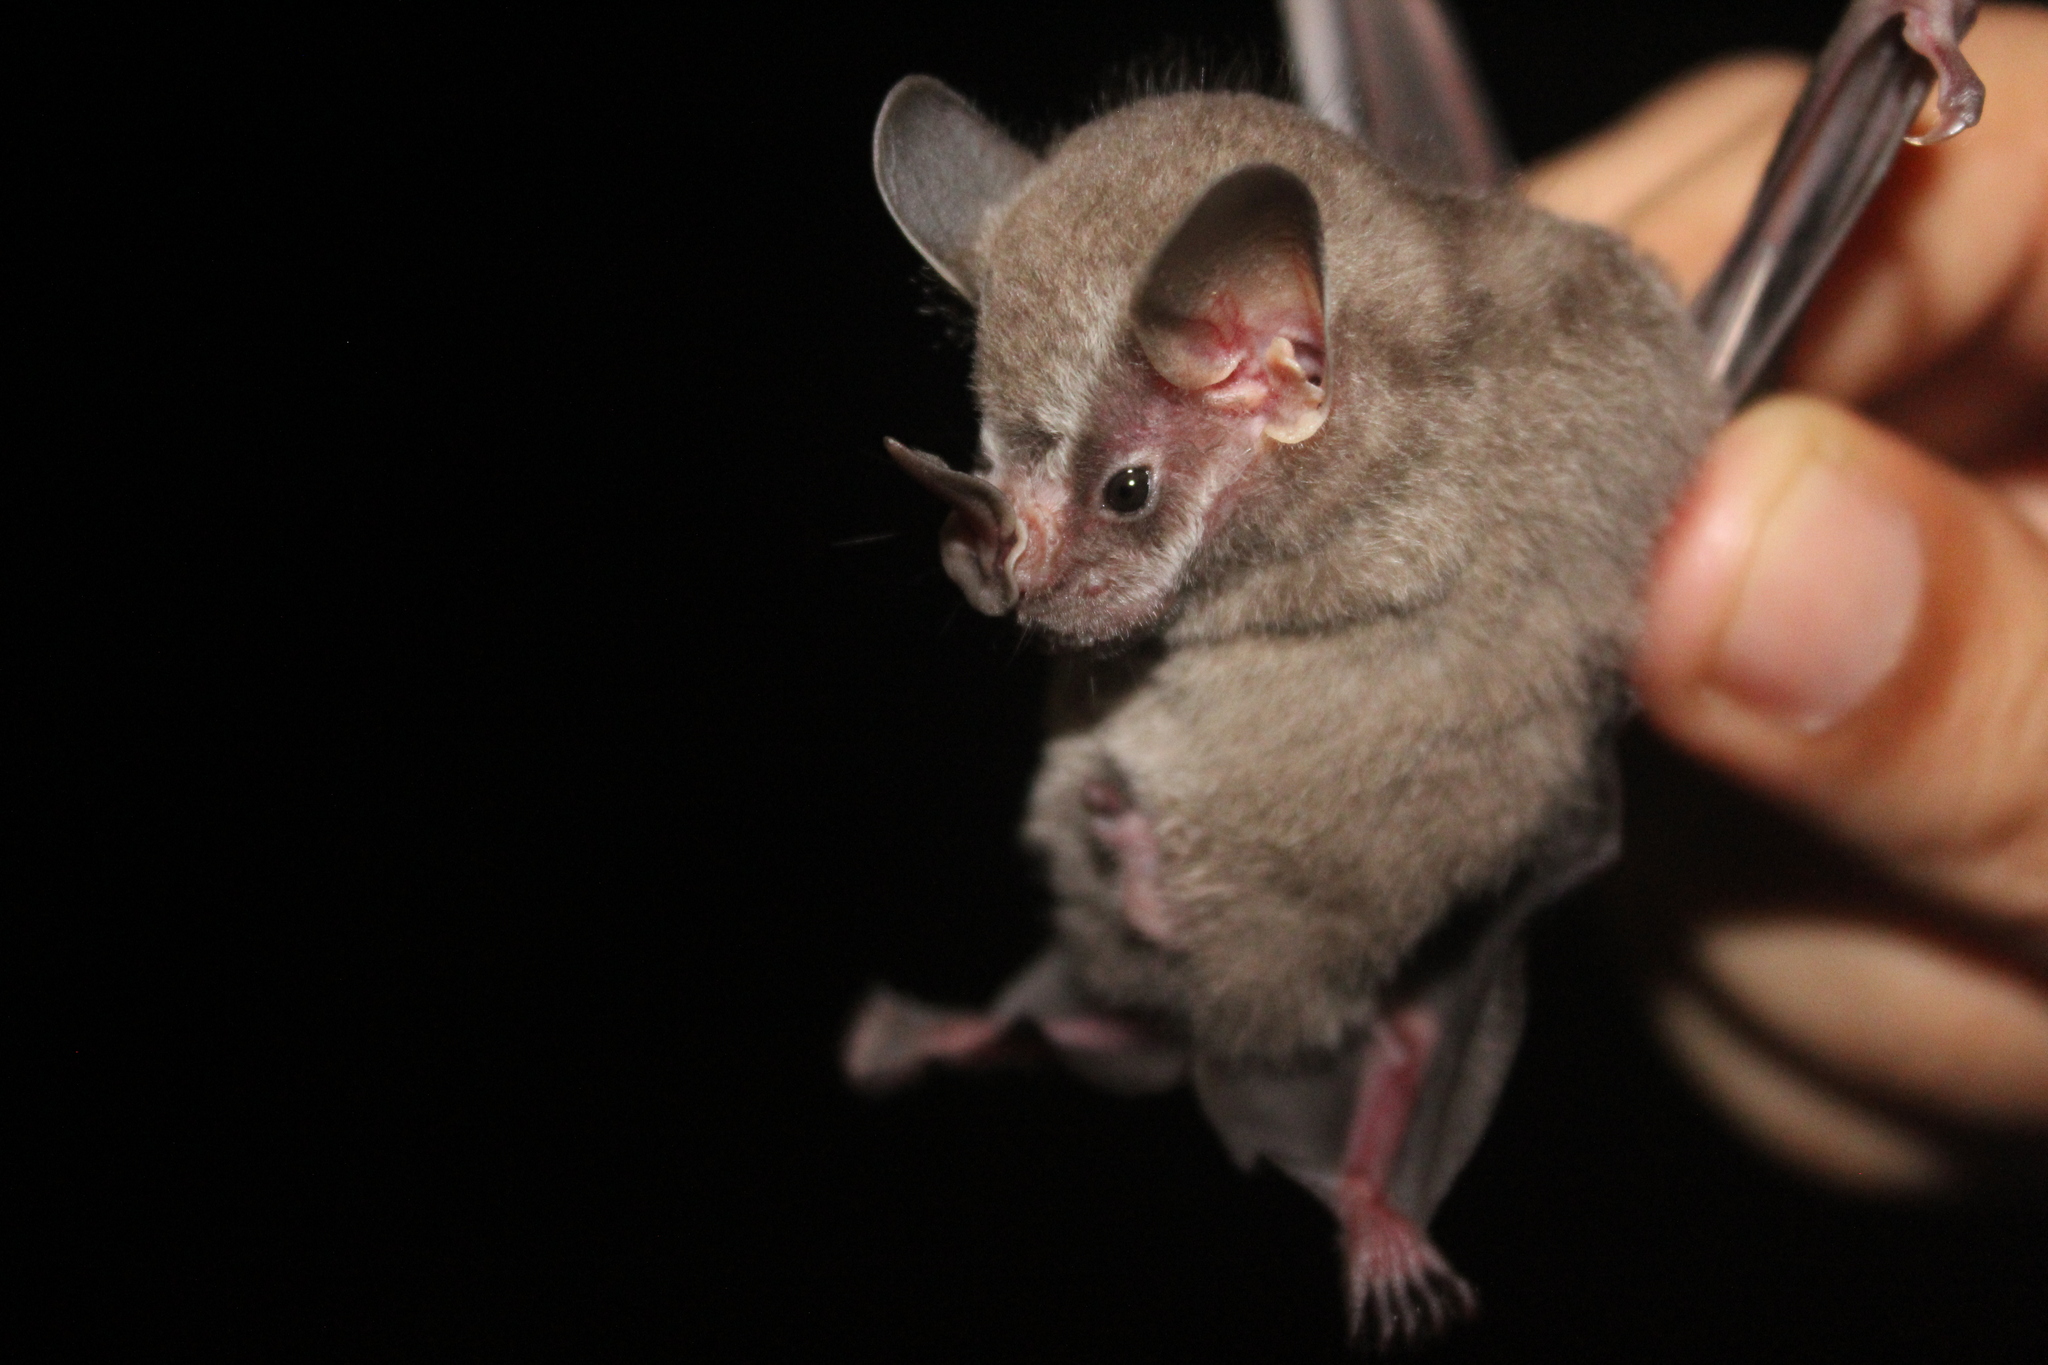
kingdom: Animalia
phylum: Chordata
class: Mammalia
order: Chiroptera
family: Phyllostomidae
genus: Artibeus
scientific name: Artibeus watsoni
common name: Thomas's fruit-eating bat
